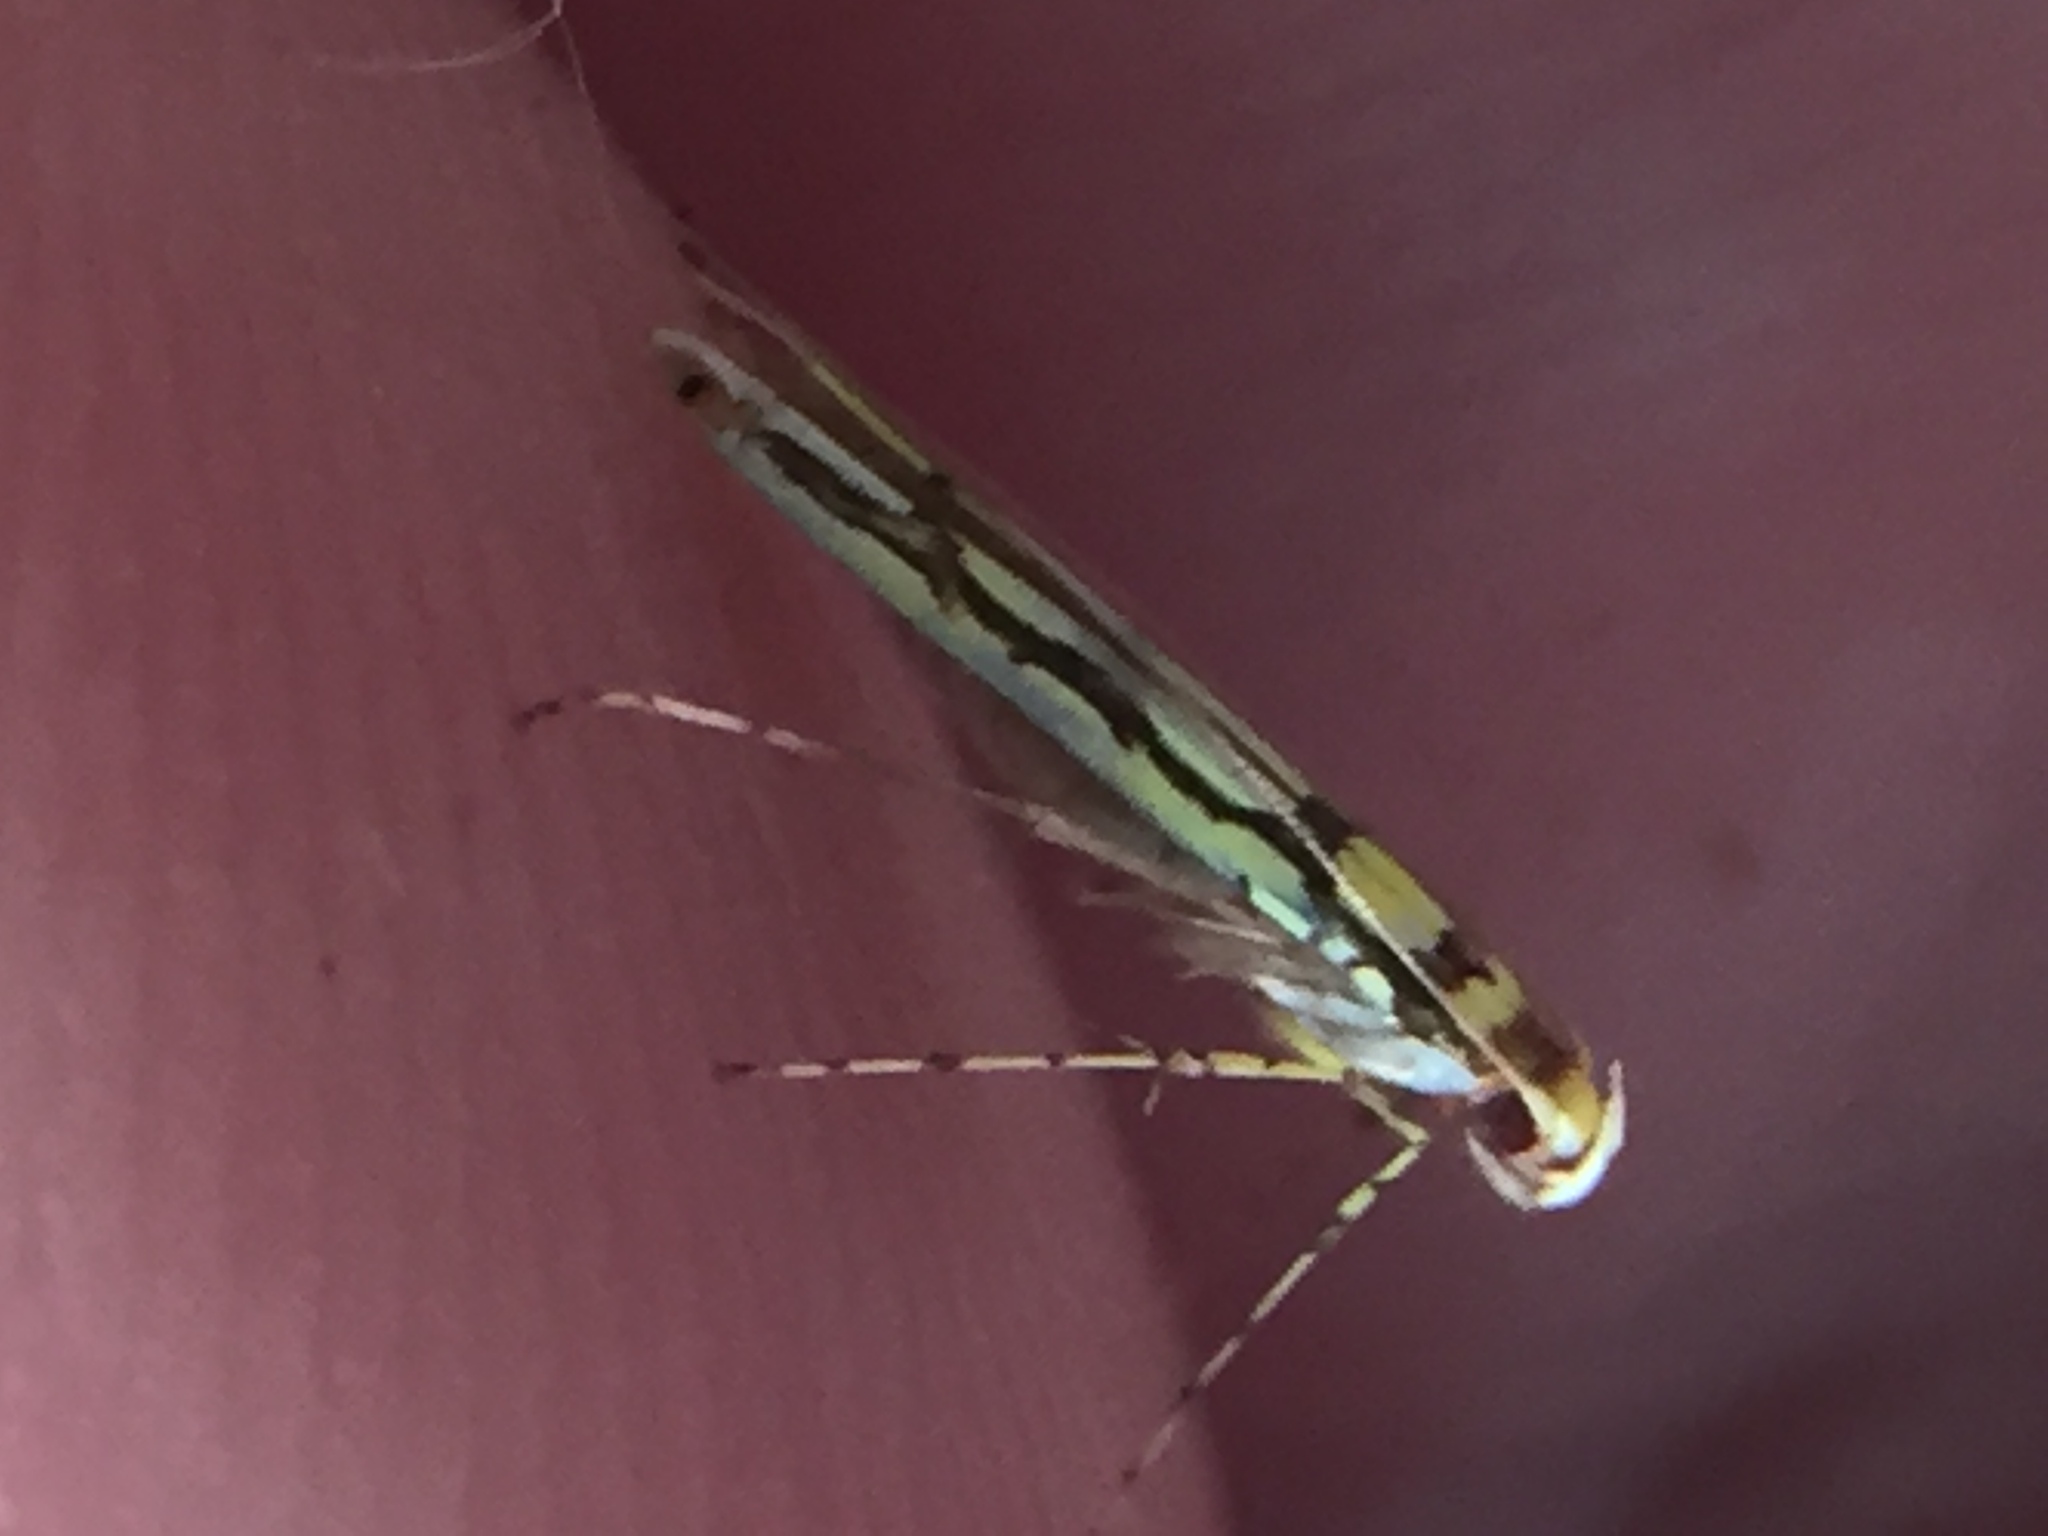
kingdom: Animalia
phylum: Arthropoda
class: Insecta
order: Lepidoptera
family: Gracillariidae
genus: Macarostola
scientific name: Macarostola miniella
